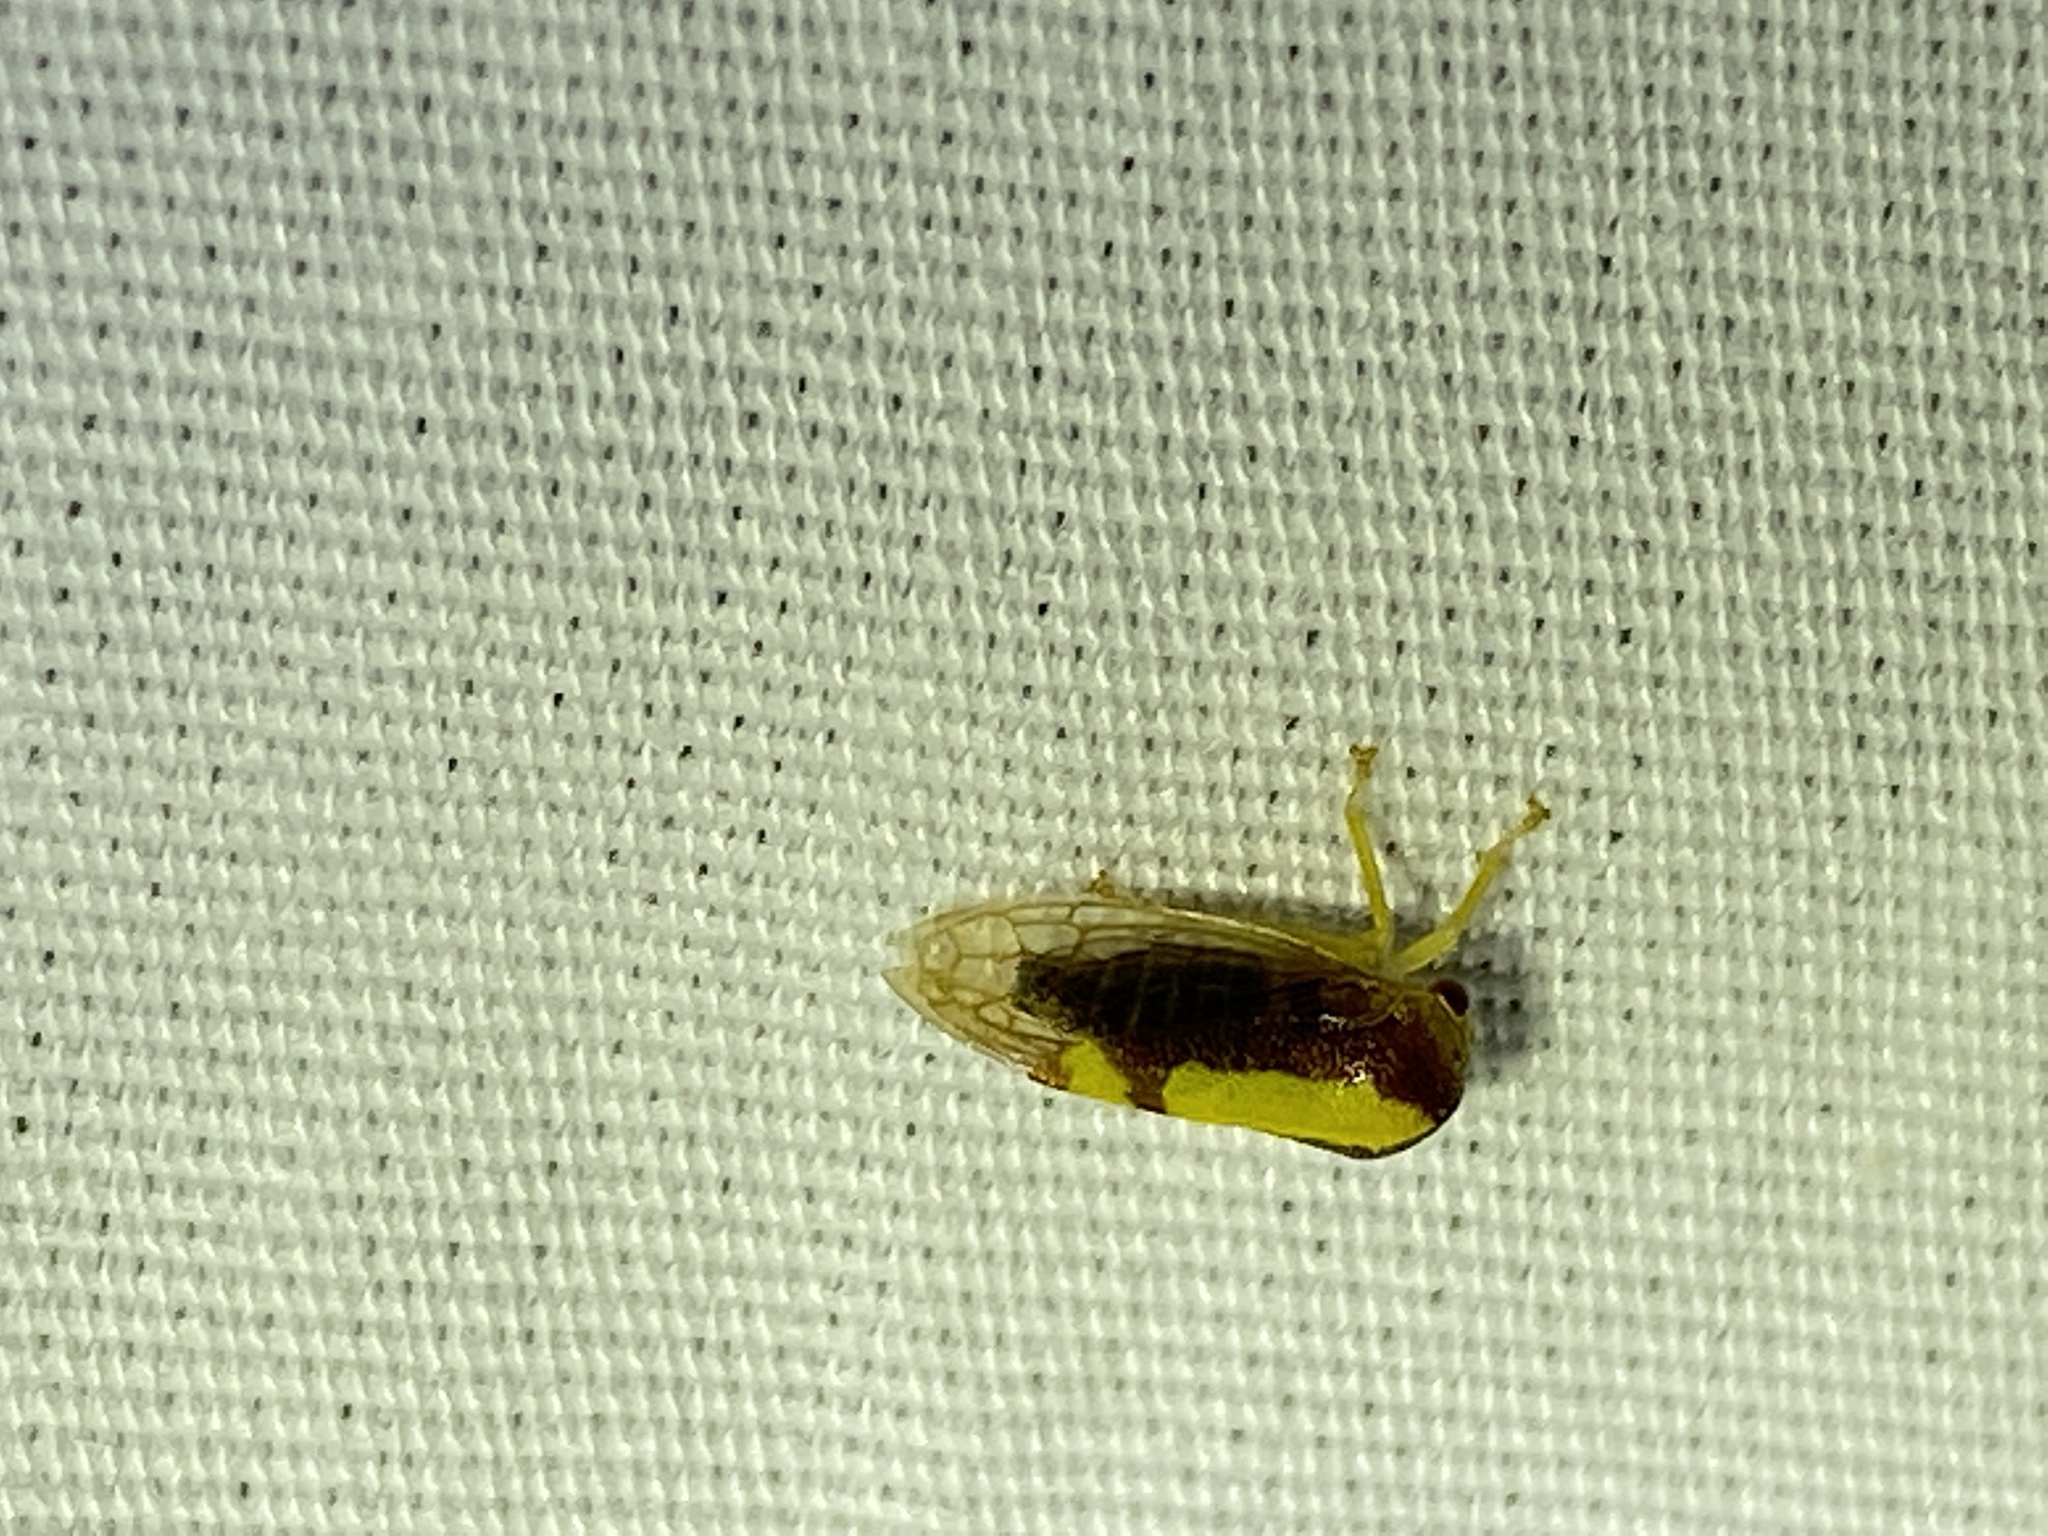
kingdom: Animalia
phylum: Arthropoda
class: Insecta
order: Hemiptera
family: Membracidae
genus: Atymna
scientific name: Atymna querci
